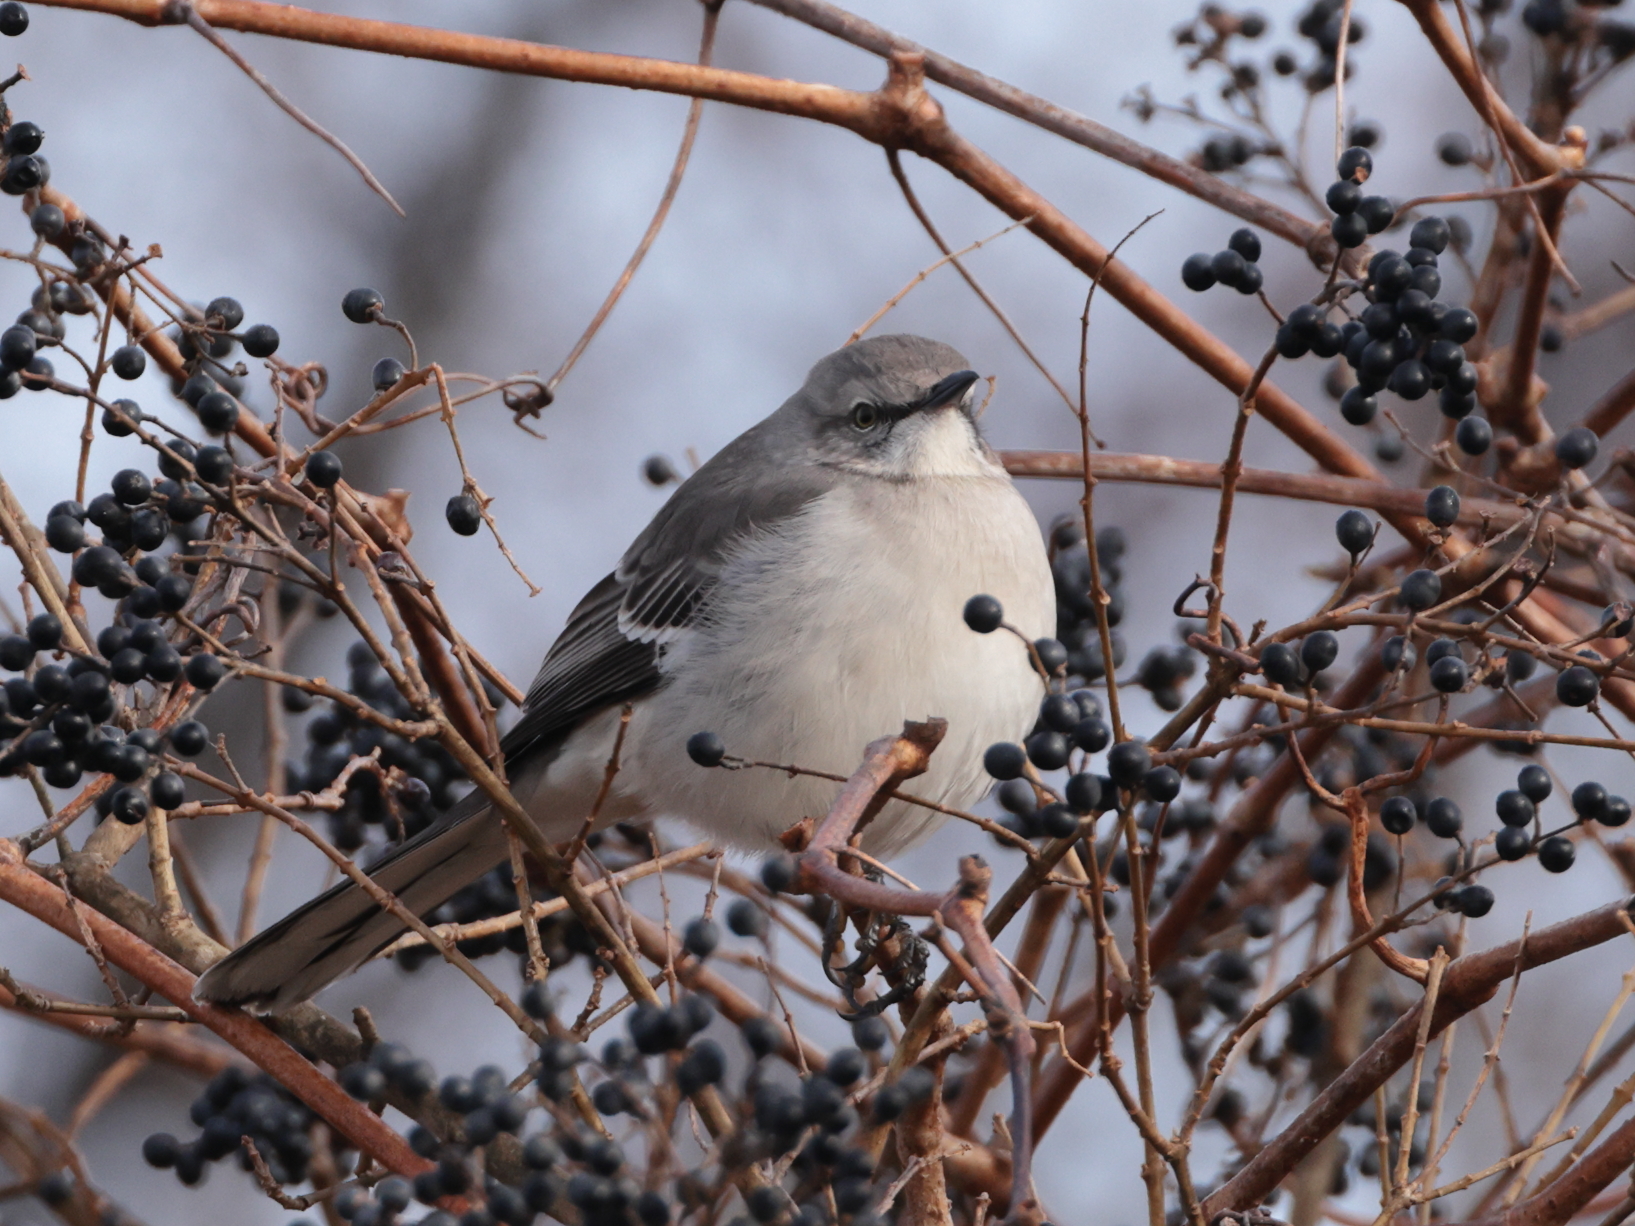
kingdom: Animalia
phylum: Chordata
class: Aves
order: Passeriformes
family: Mimidae
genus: Mimus
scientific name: Mimus polyglottos
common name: Northern mockingbird
